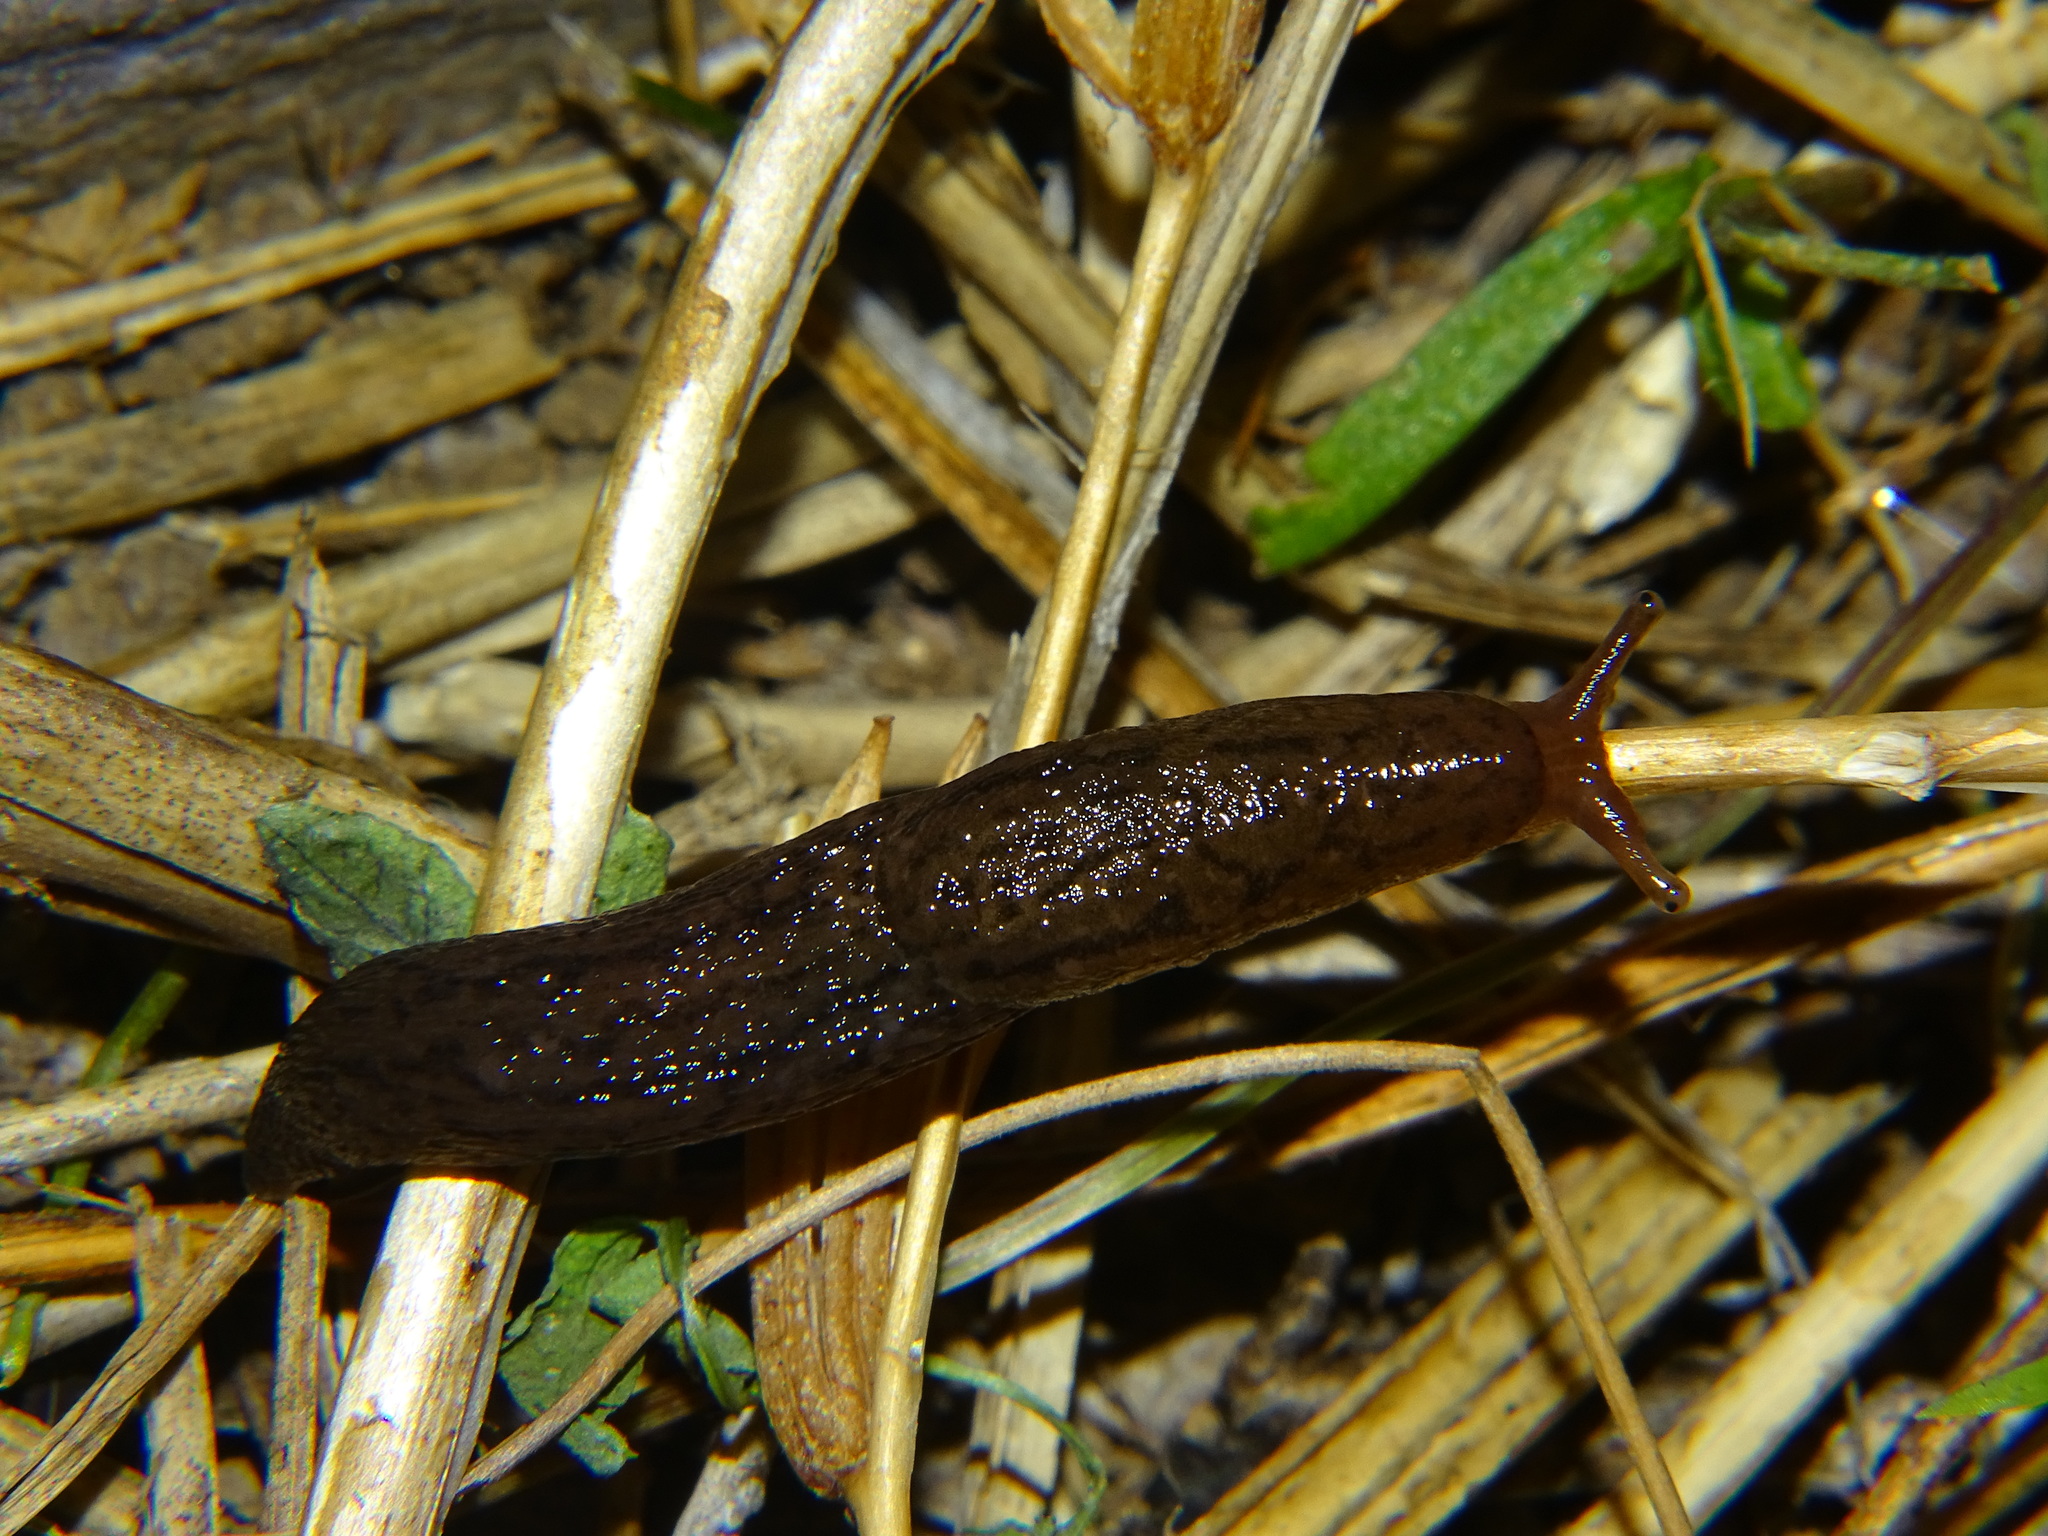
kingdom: Animalia
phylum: Mollusca
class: Gastropoda
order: Stylommatophora
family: Limacidae
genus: Ambigolimax
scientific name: Ambigolimax
